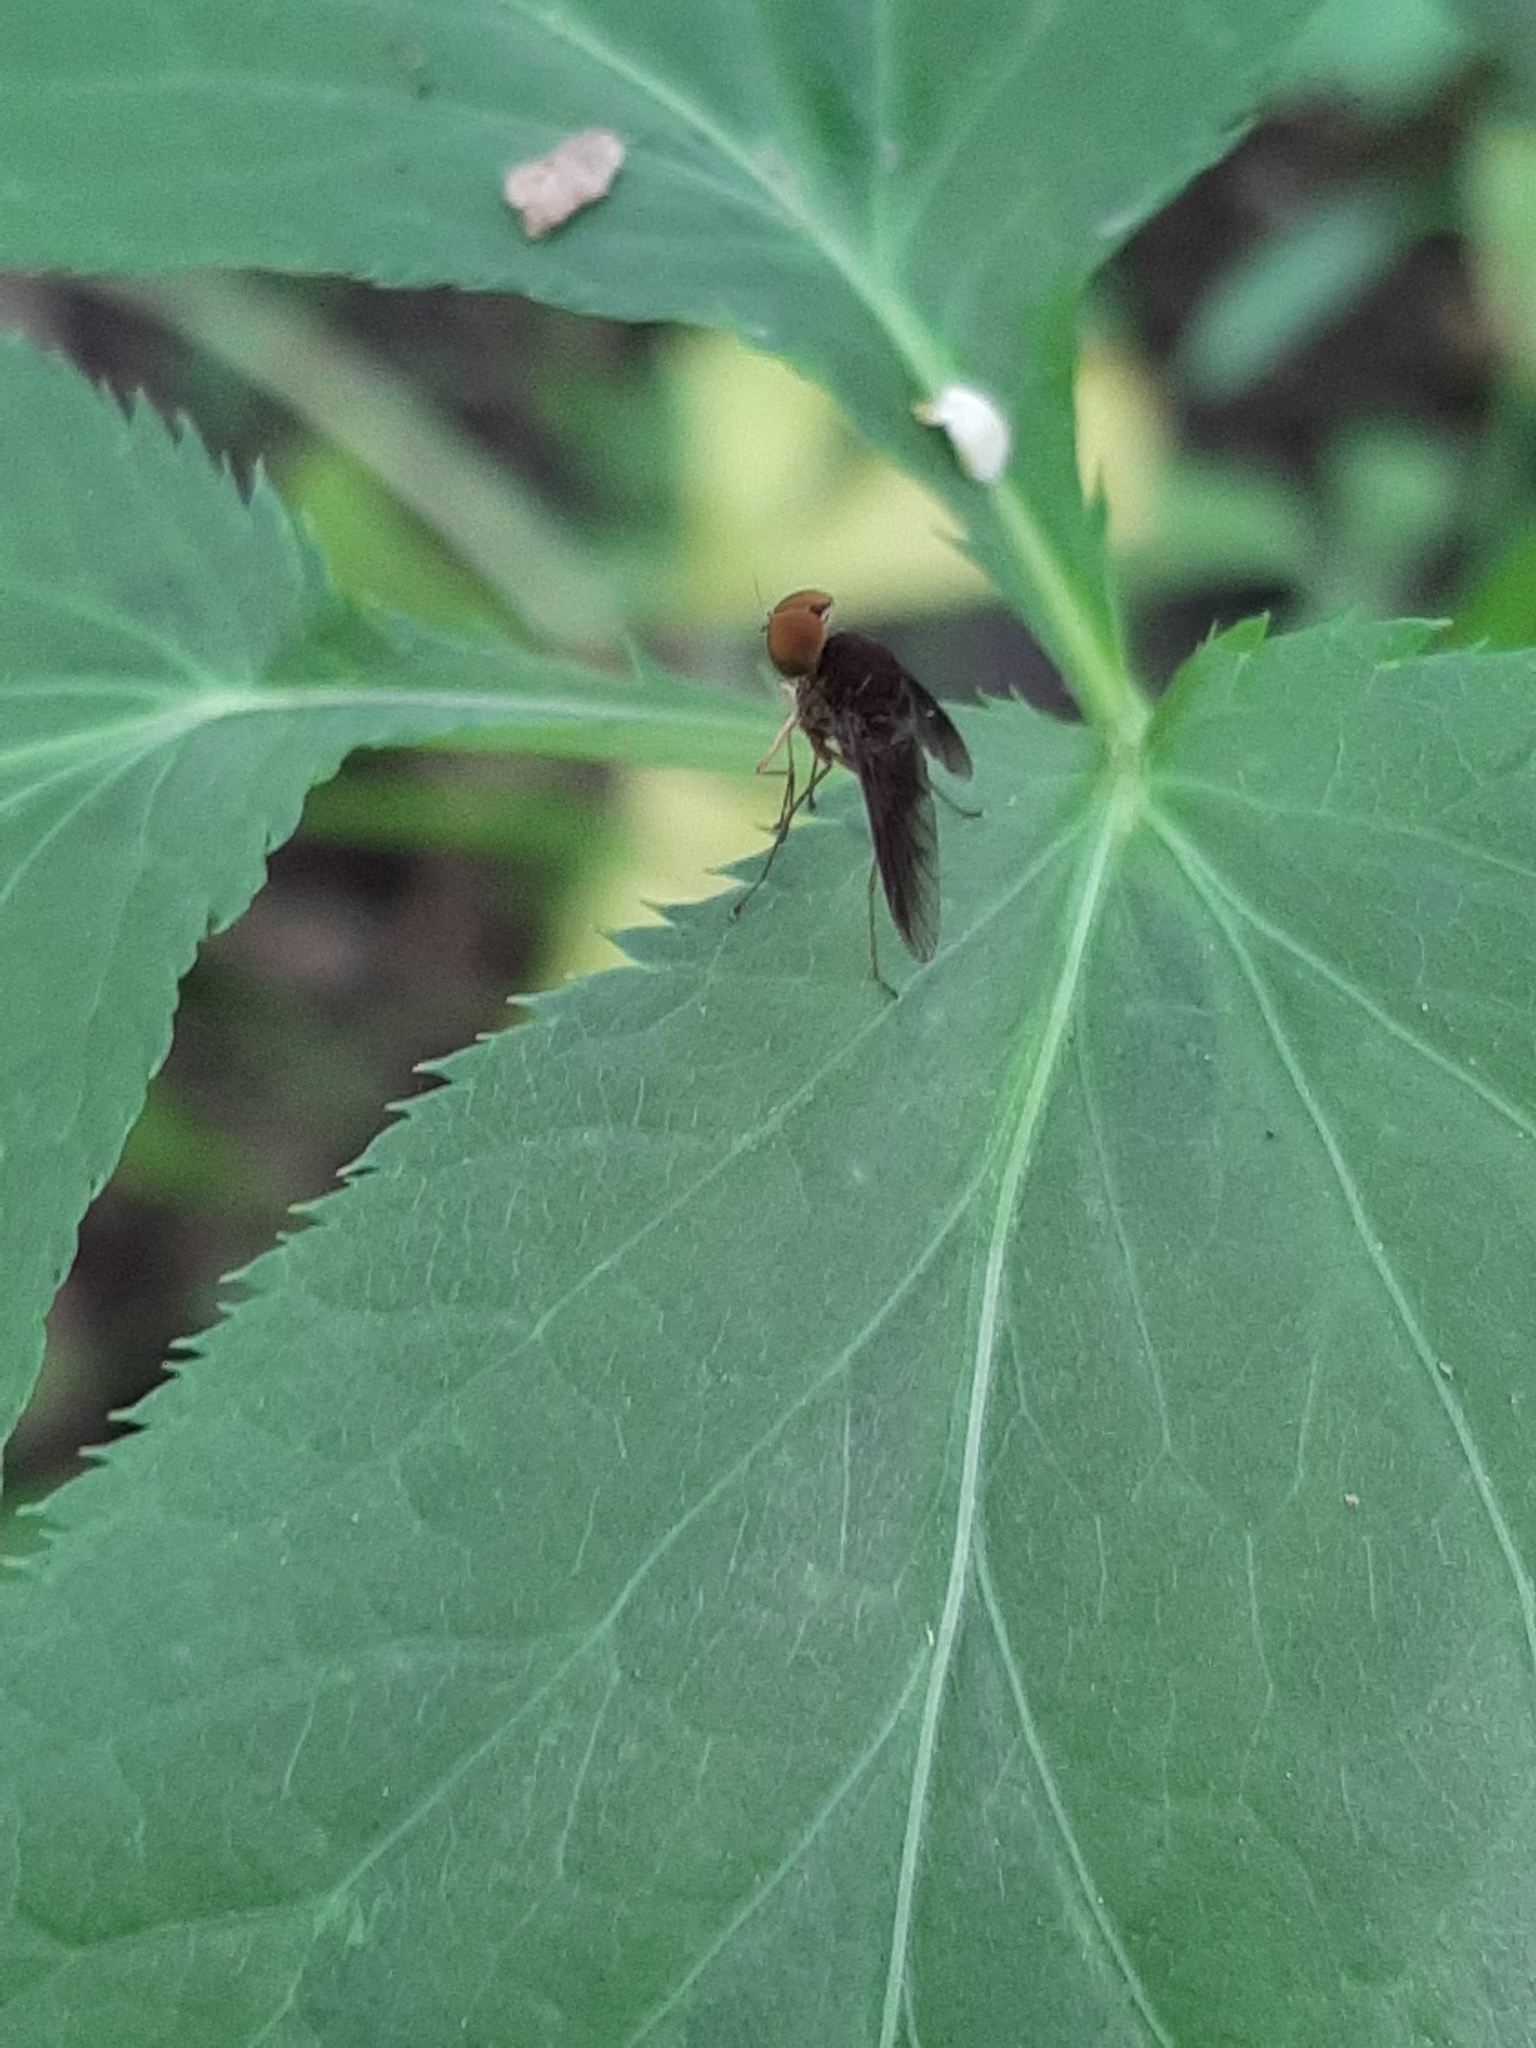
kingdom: Animalia
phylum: Arthropoda
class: Insecta
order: Diptera
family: Rhagionidae
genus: Chrysopilus
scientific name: Chrysopilus quadratus
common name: Quadrate snipe fly
